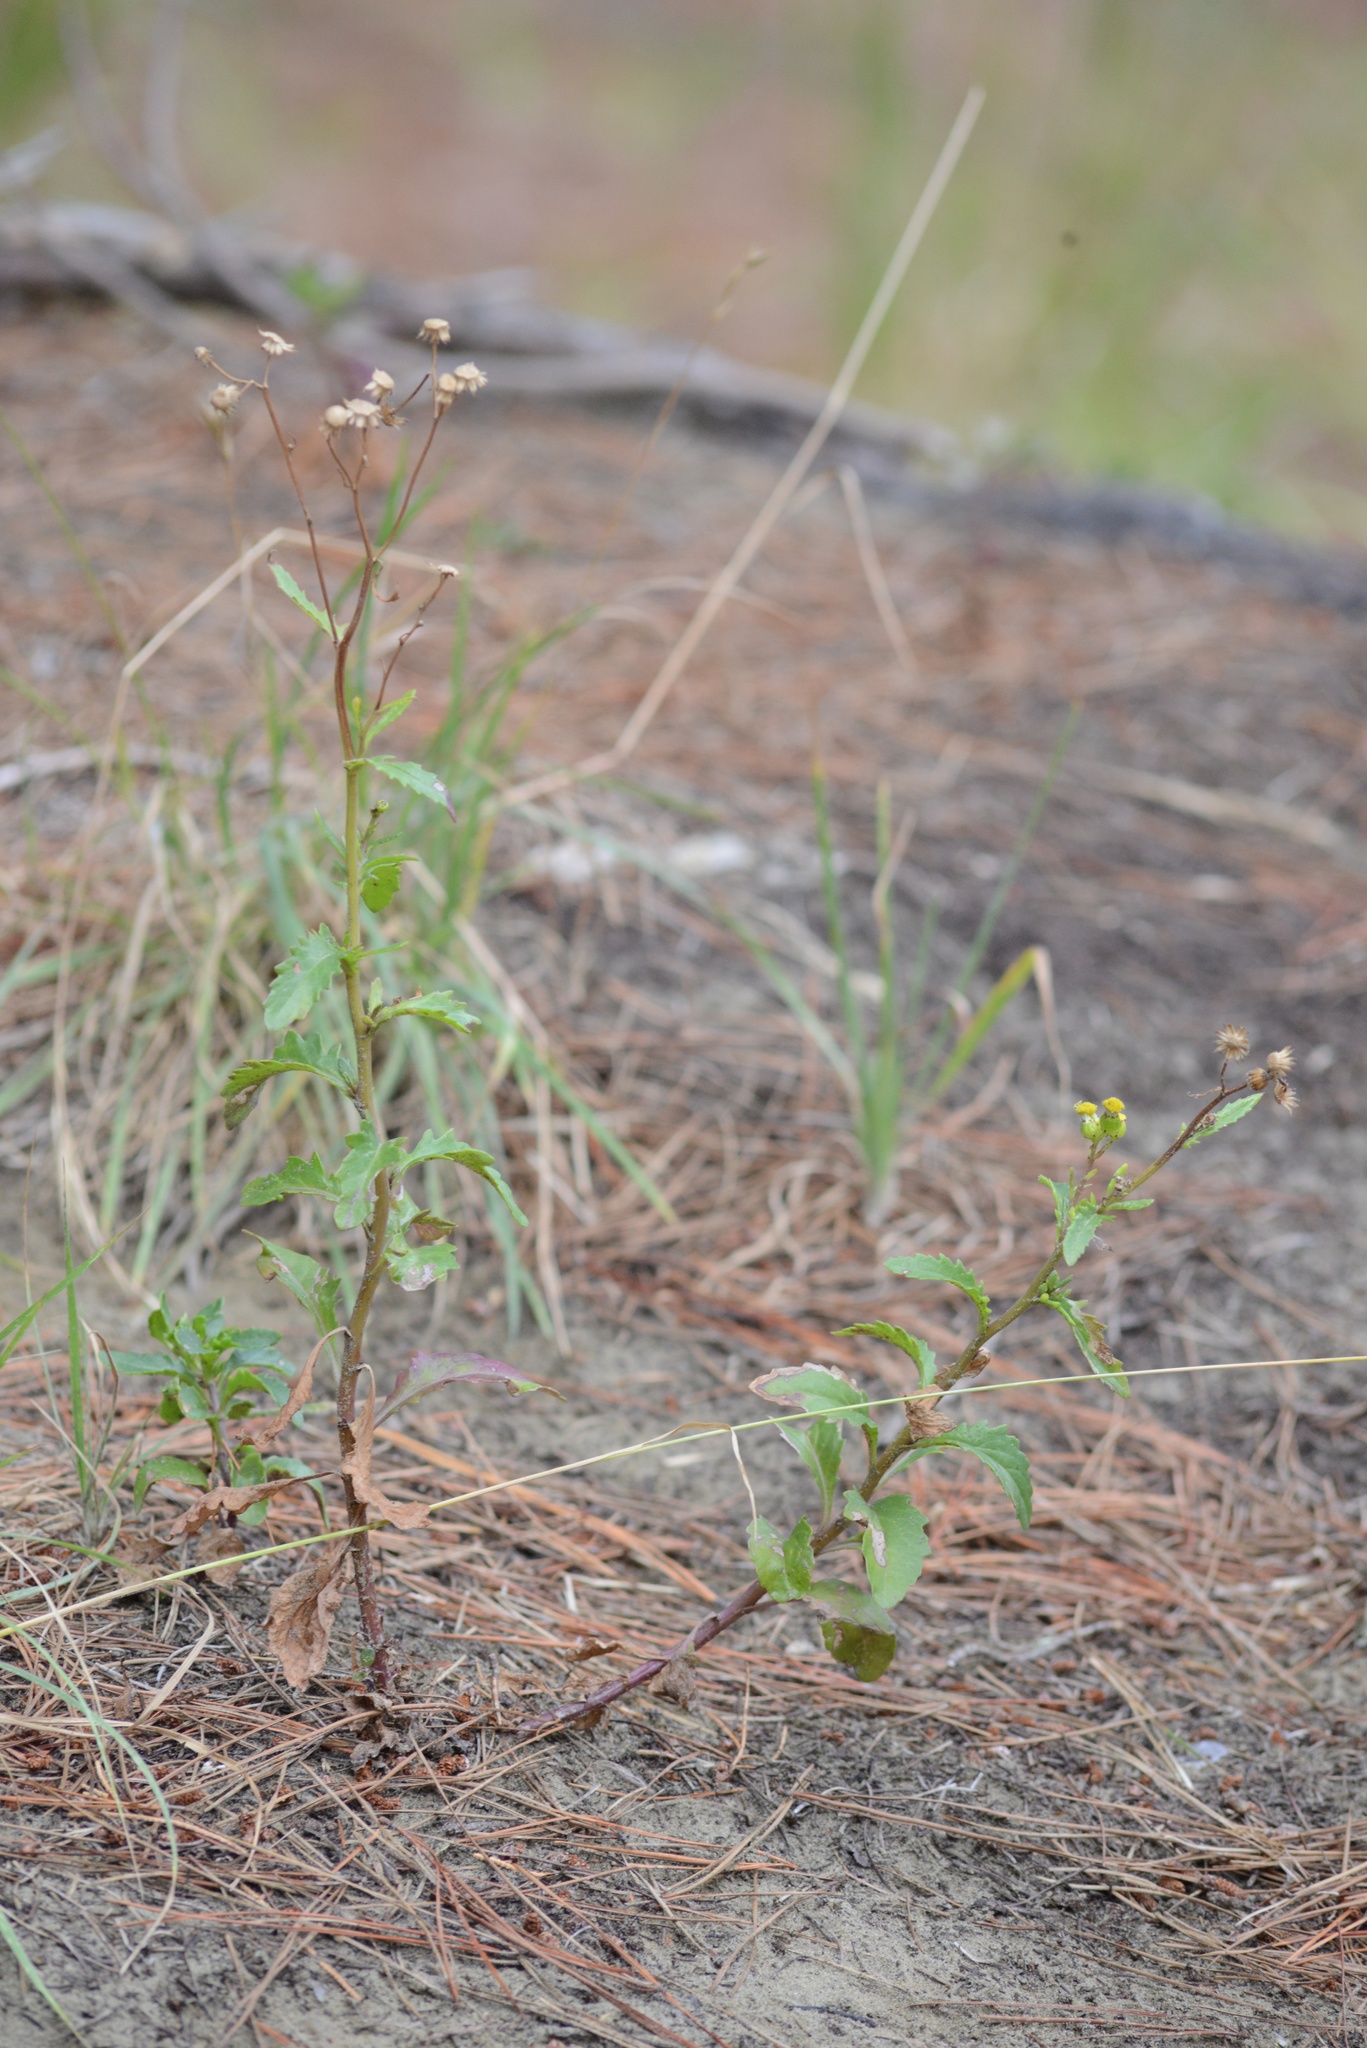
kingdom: Plantae
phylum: Tracheophyta
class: Magnoliopsida
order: Asterales
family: Asteraceae
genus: Senecio
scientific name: Senecio matatini
